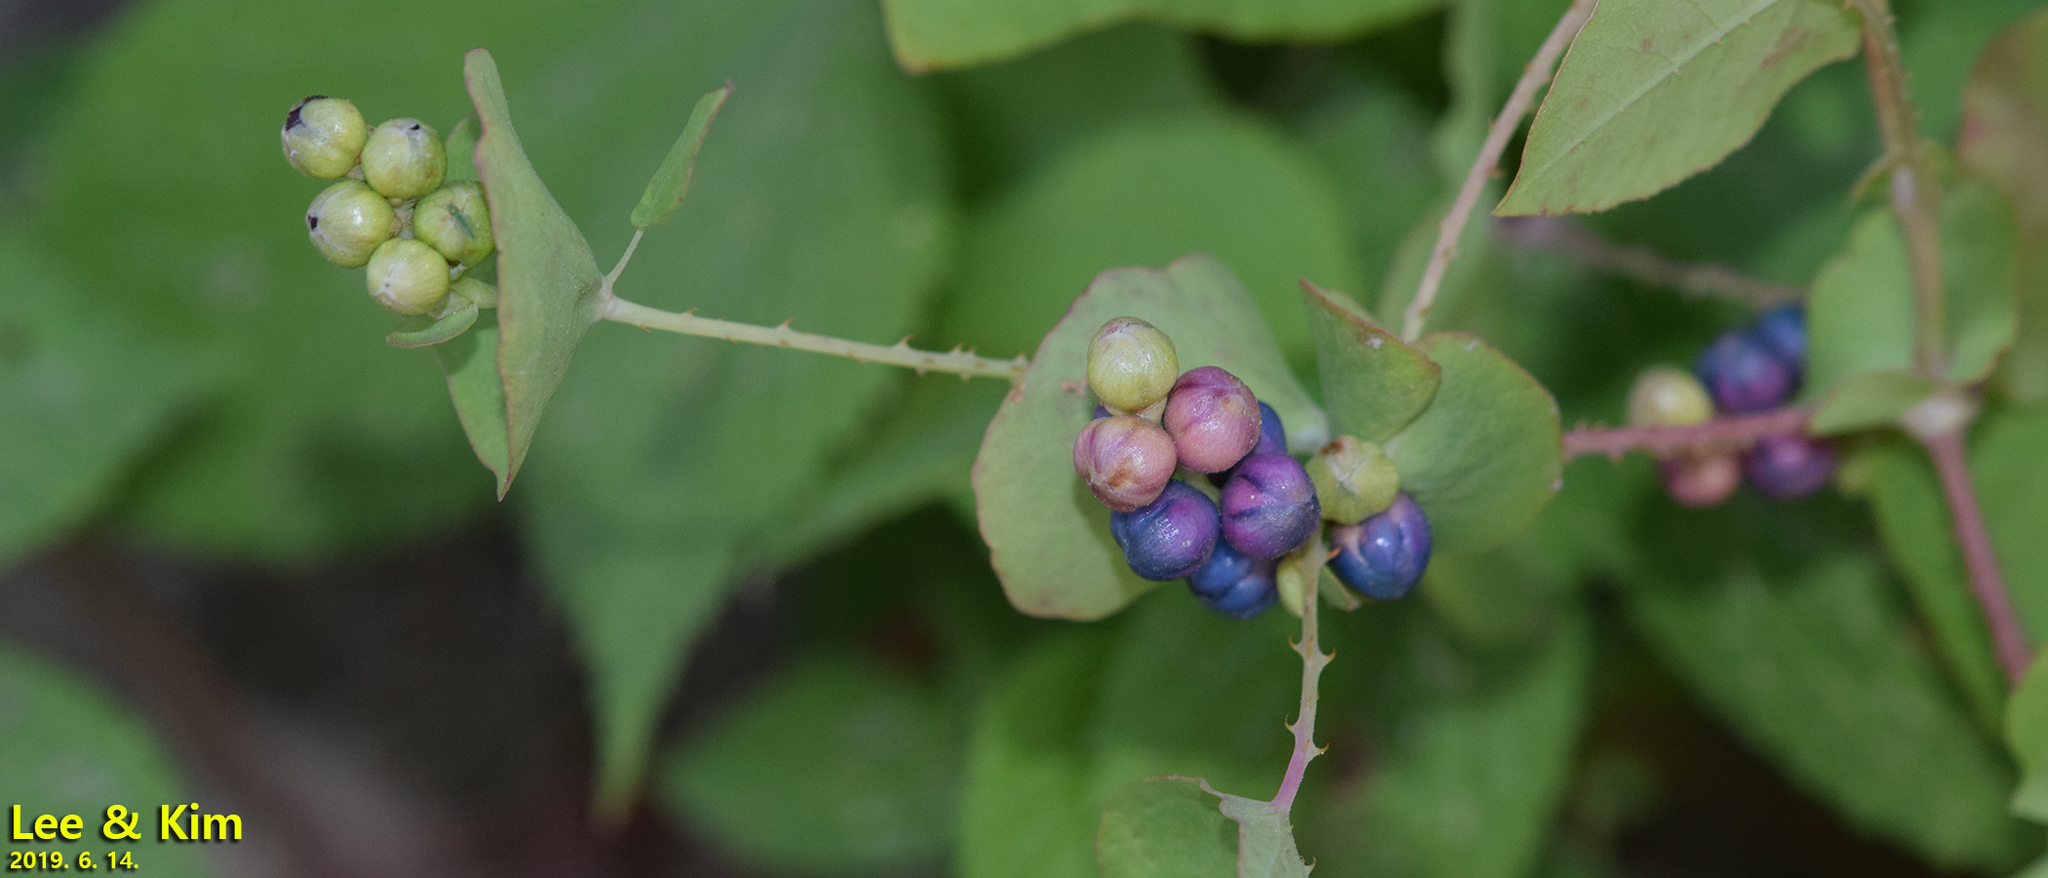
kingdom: Plantae
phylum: Tracheophyta
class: Magnoliopsida
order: Caryophyllales
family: Polygonaceae
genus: Persicaria
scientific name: Persicaria perfoliata
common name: Asiatic tearthumb
